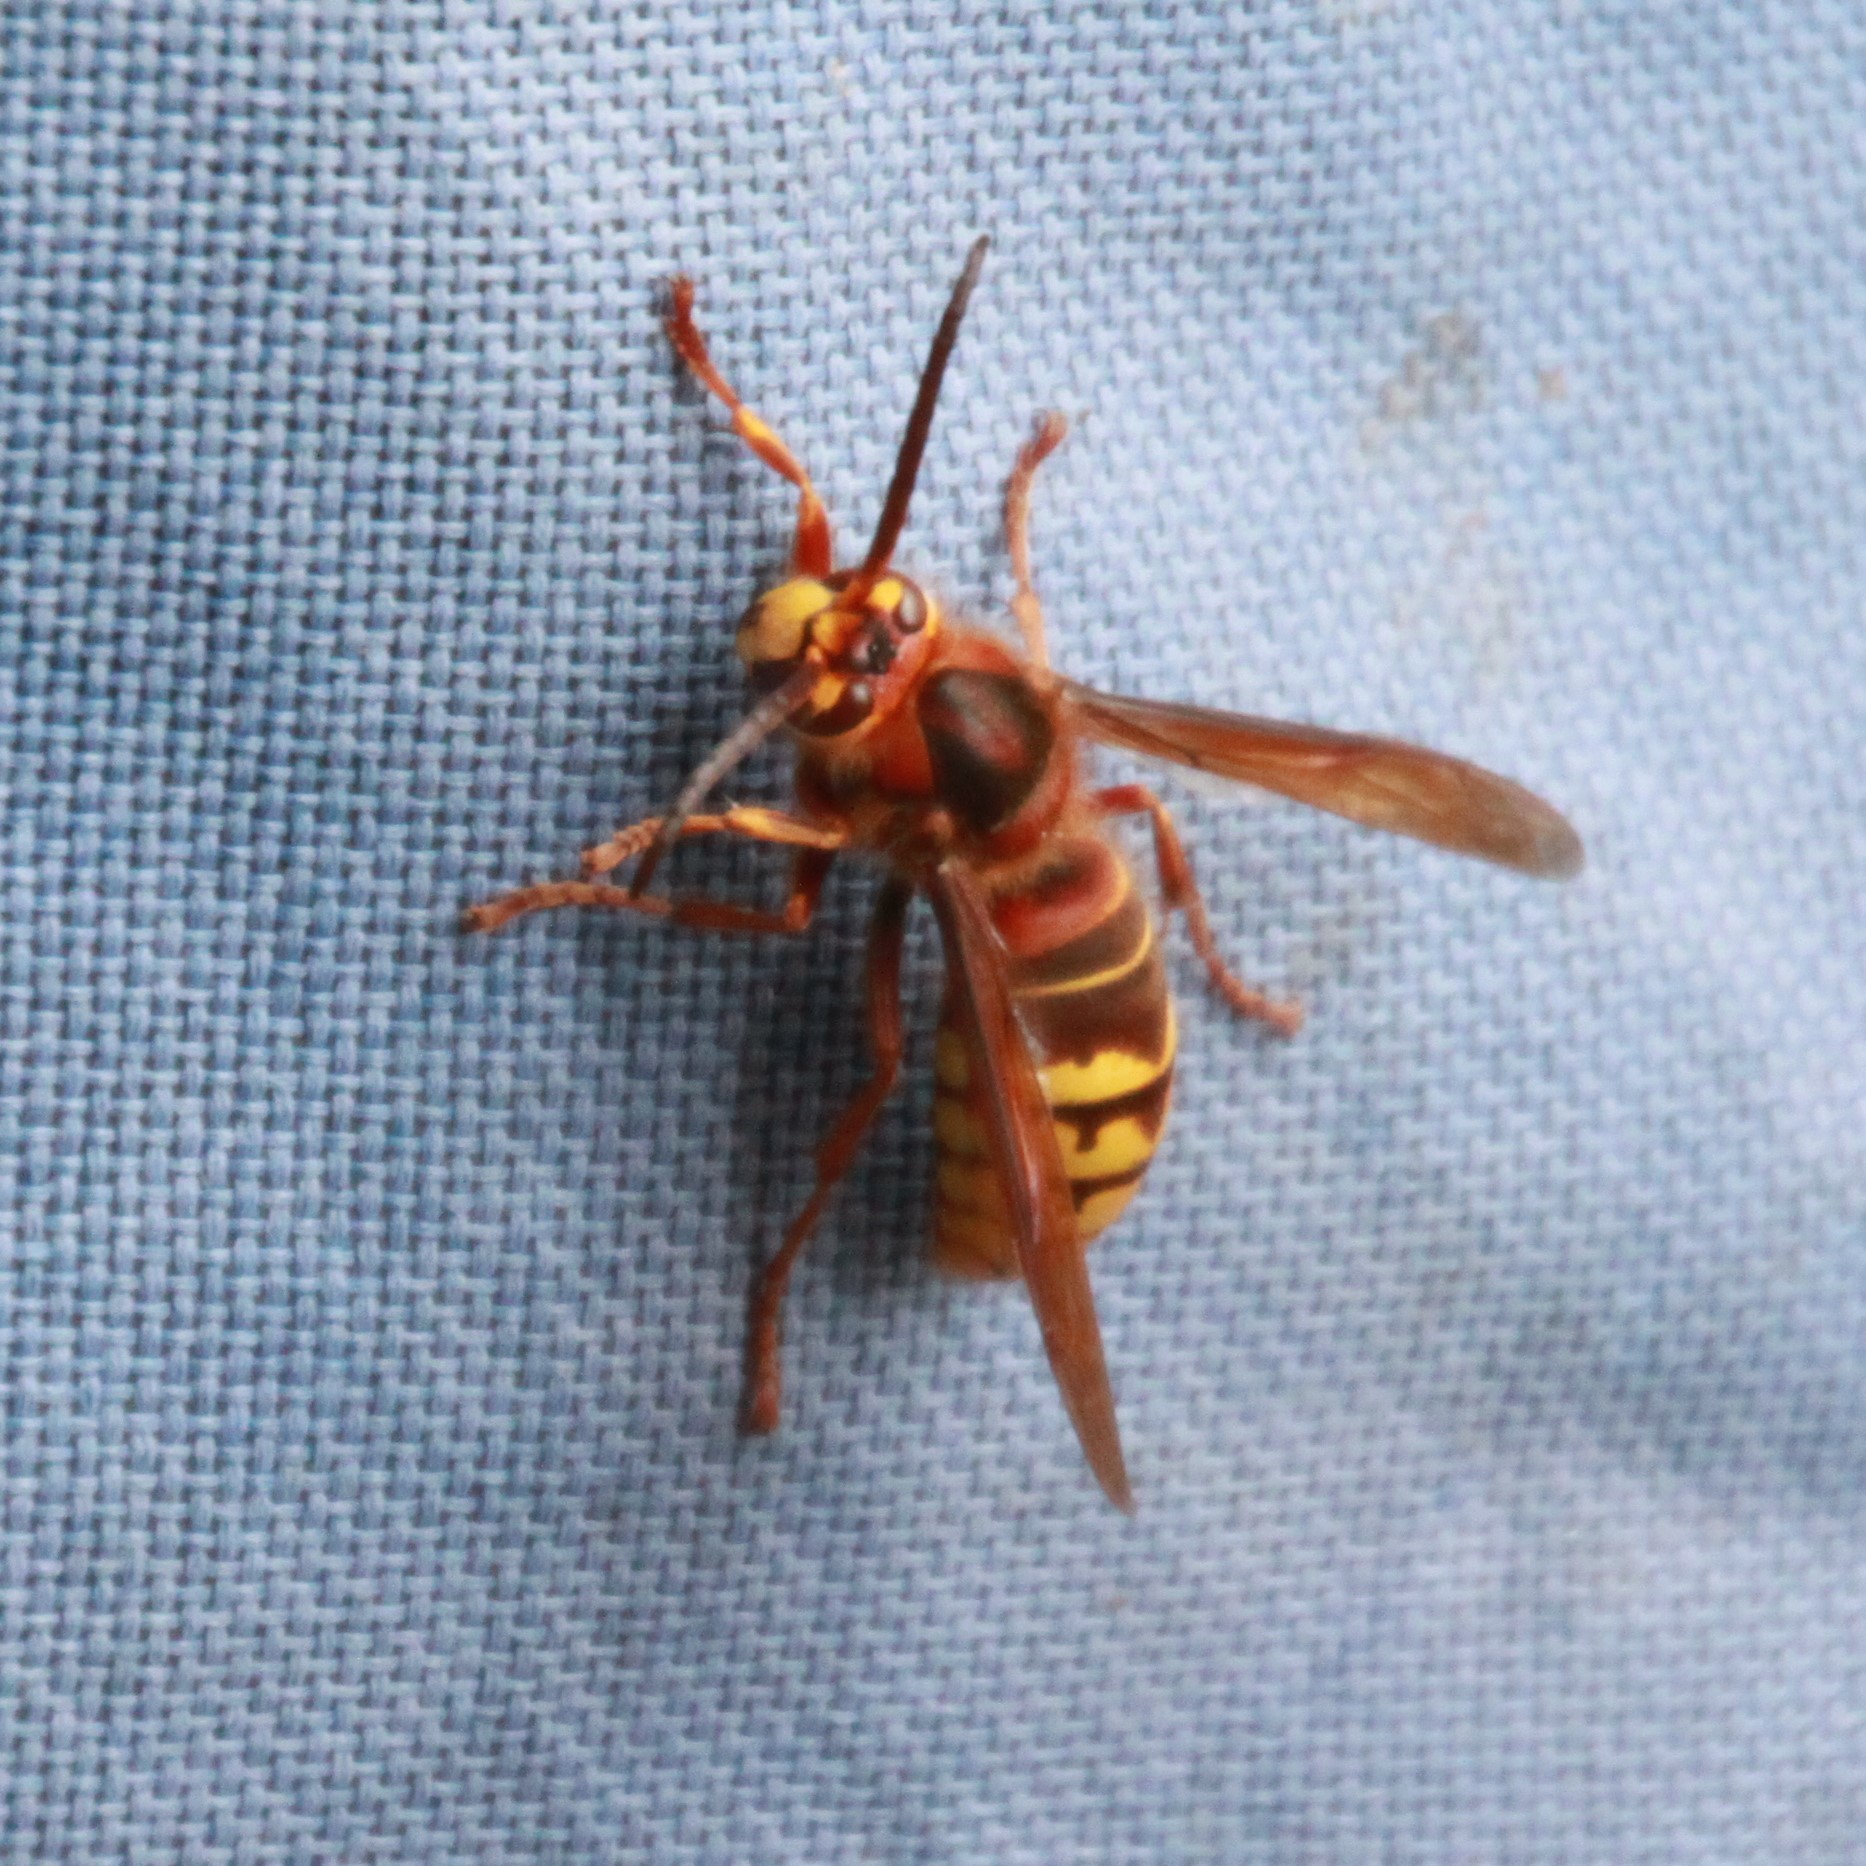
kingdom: Animalia
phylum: Arthropoda
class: Insecta
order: Hymenoptera
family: Vespidae
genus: Vespa
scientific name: Vespa crabro
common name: Hornet
